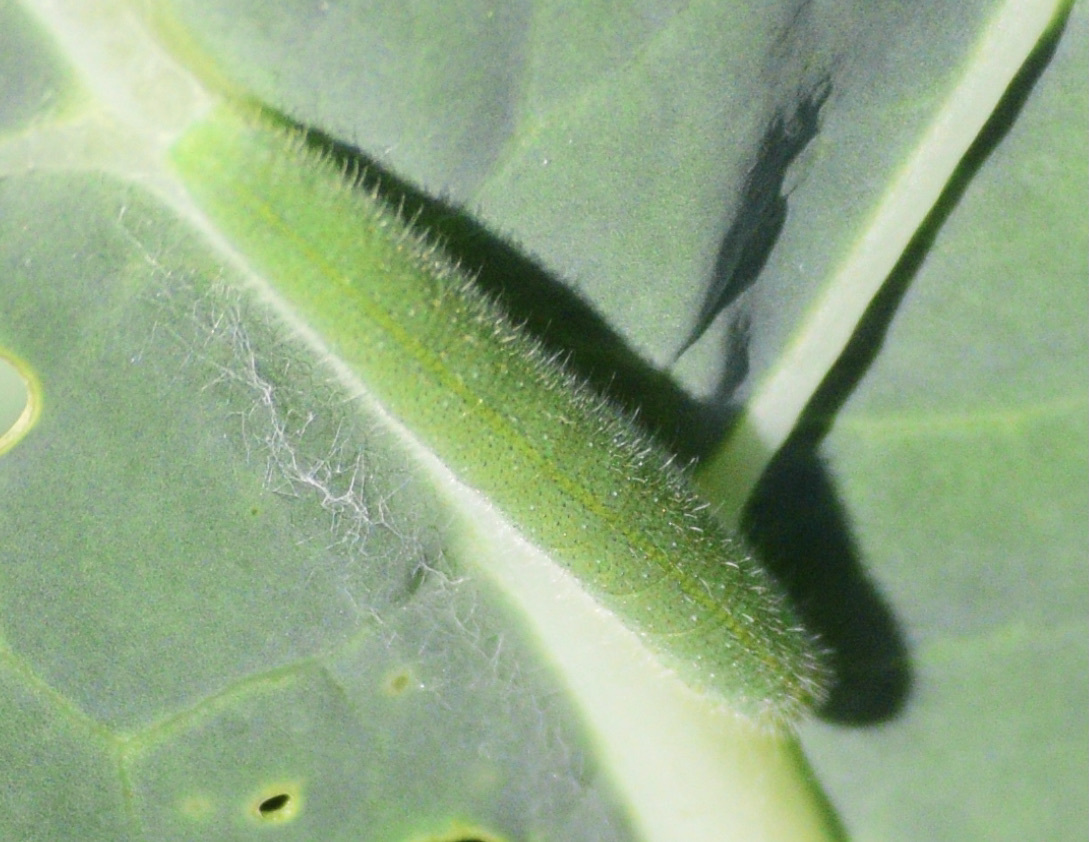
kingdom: Animalia
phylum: Arthropoda
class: Insecta
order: Lepidoptera
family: Pieridae
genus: Pieris
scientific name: Pieris rapae
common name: Small white
